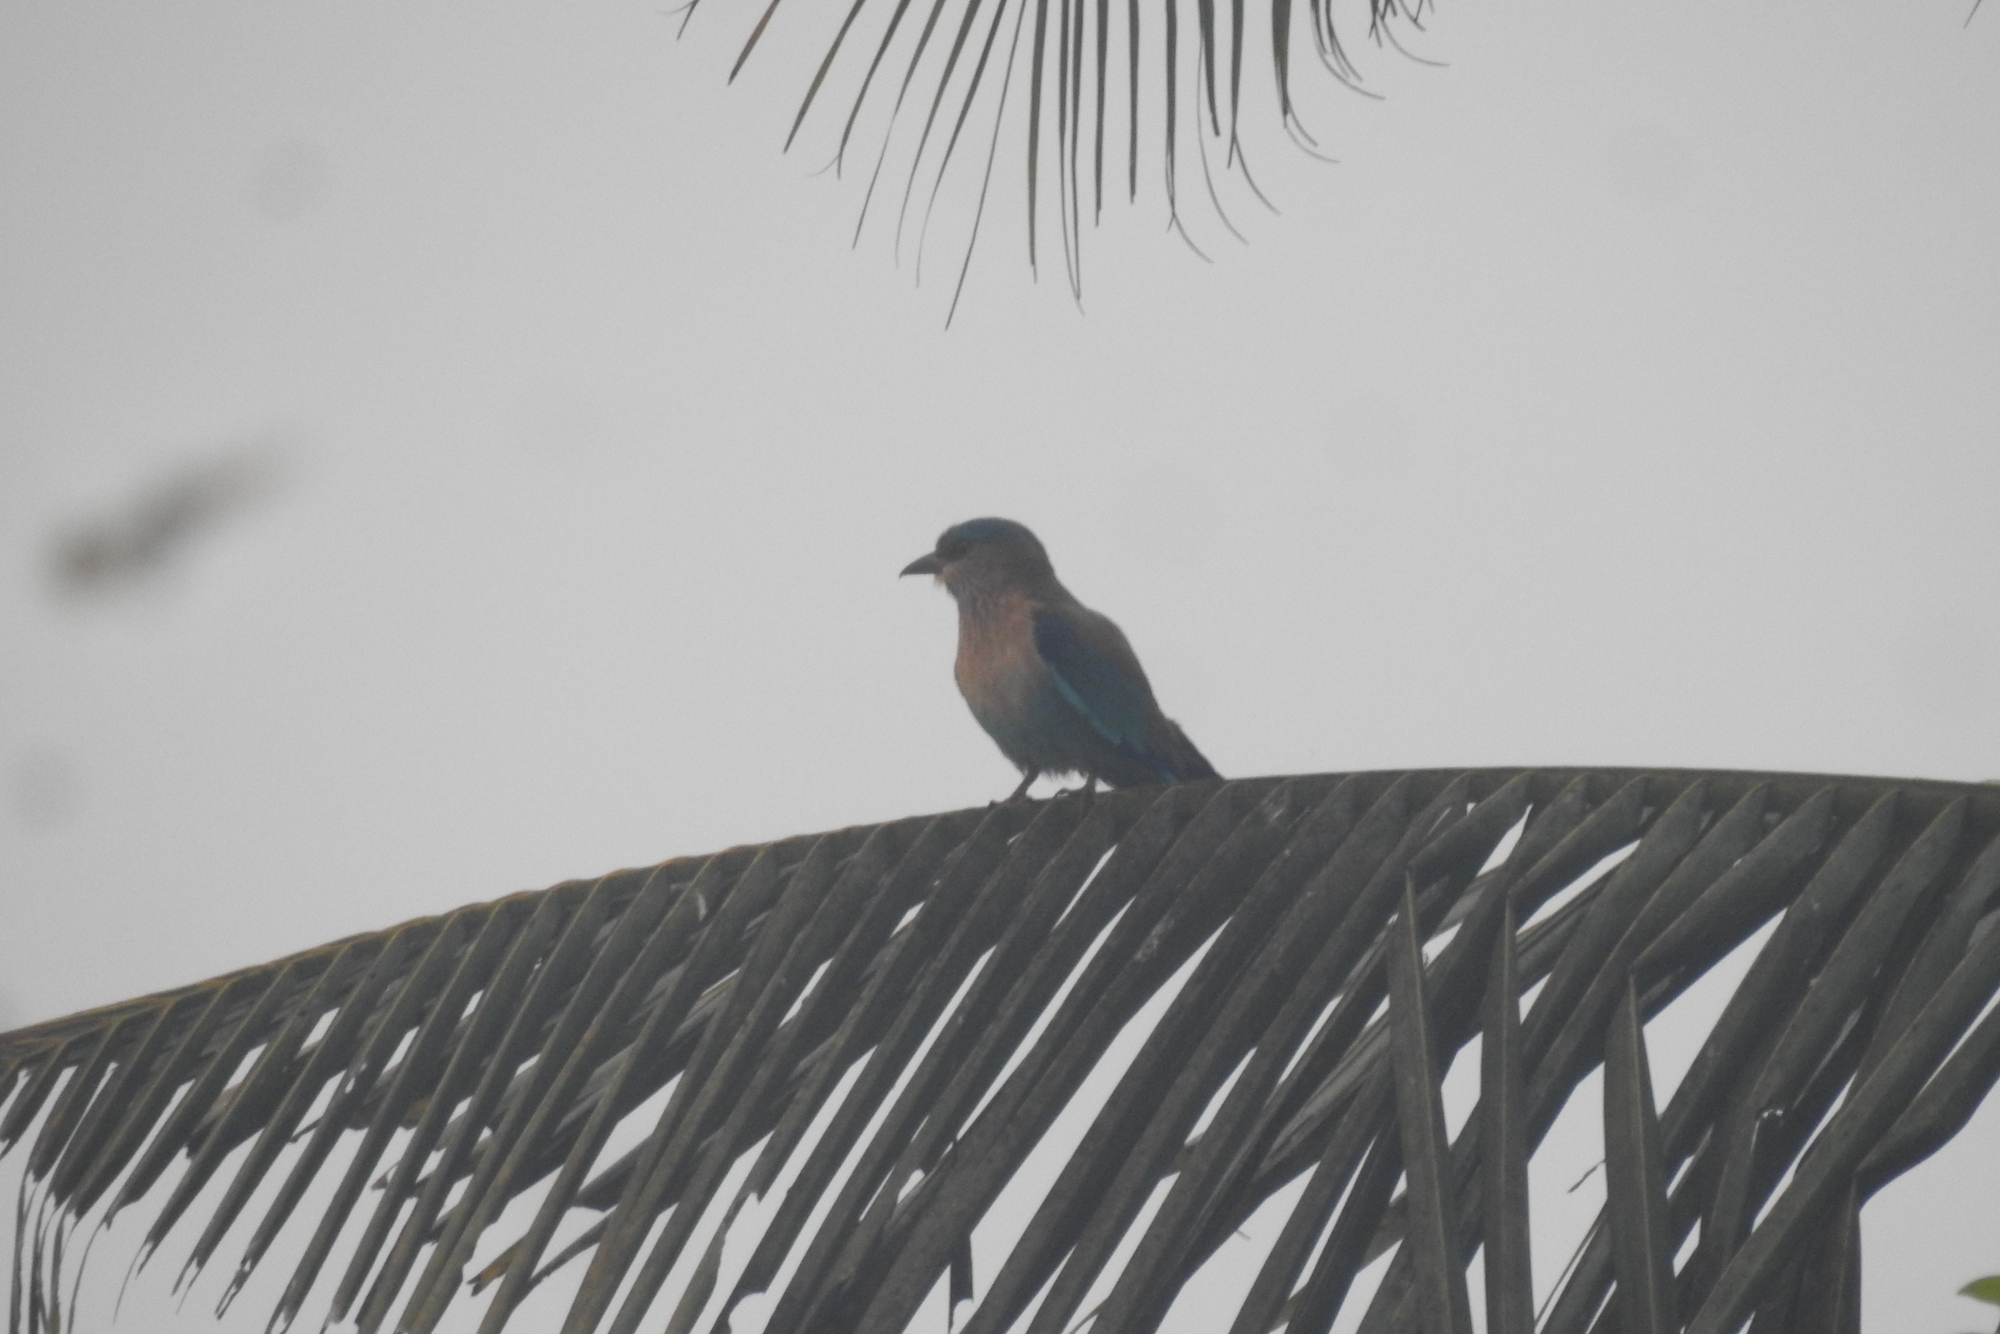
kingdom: Animalia
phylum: Chordata
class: Aves
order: Coraciiformes
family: Coraciidae
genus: Coracias
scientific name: Coracias benghalensis
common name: Indian roller
